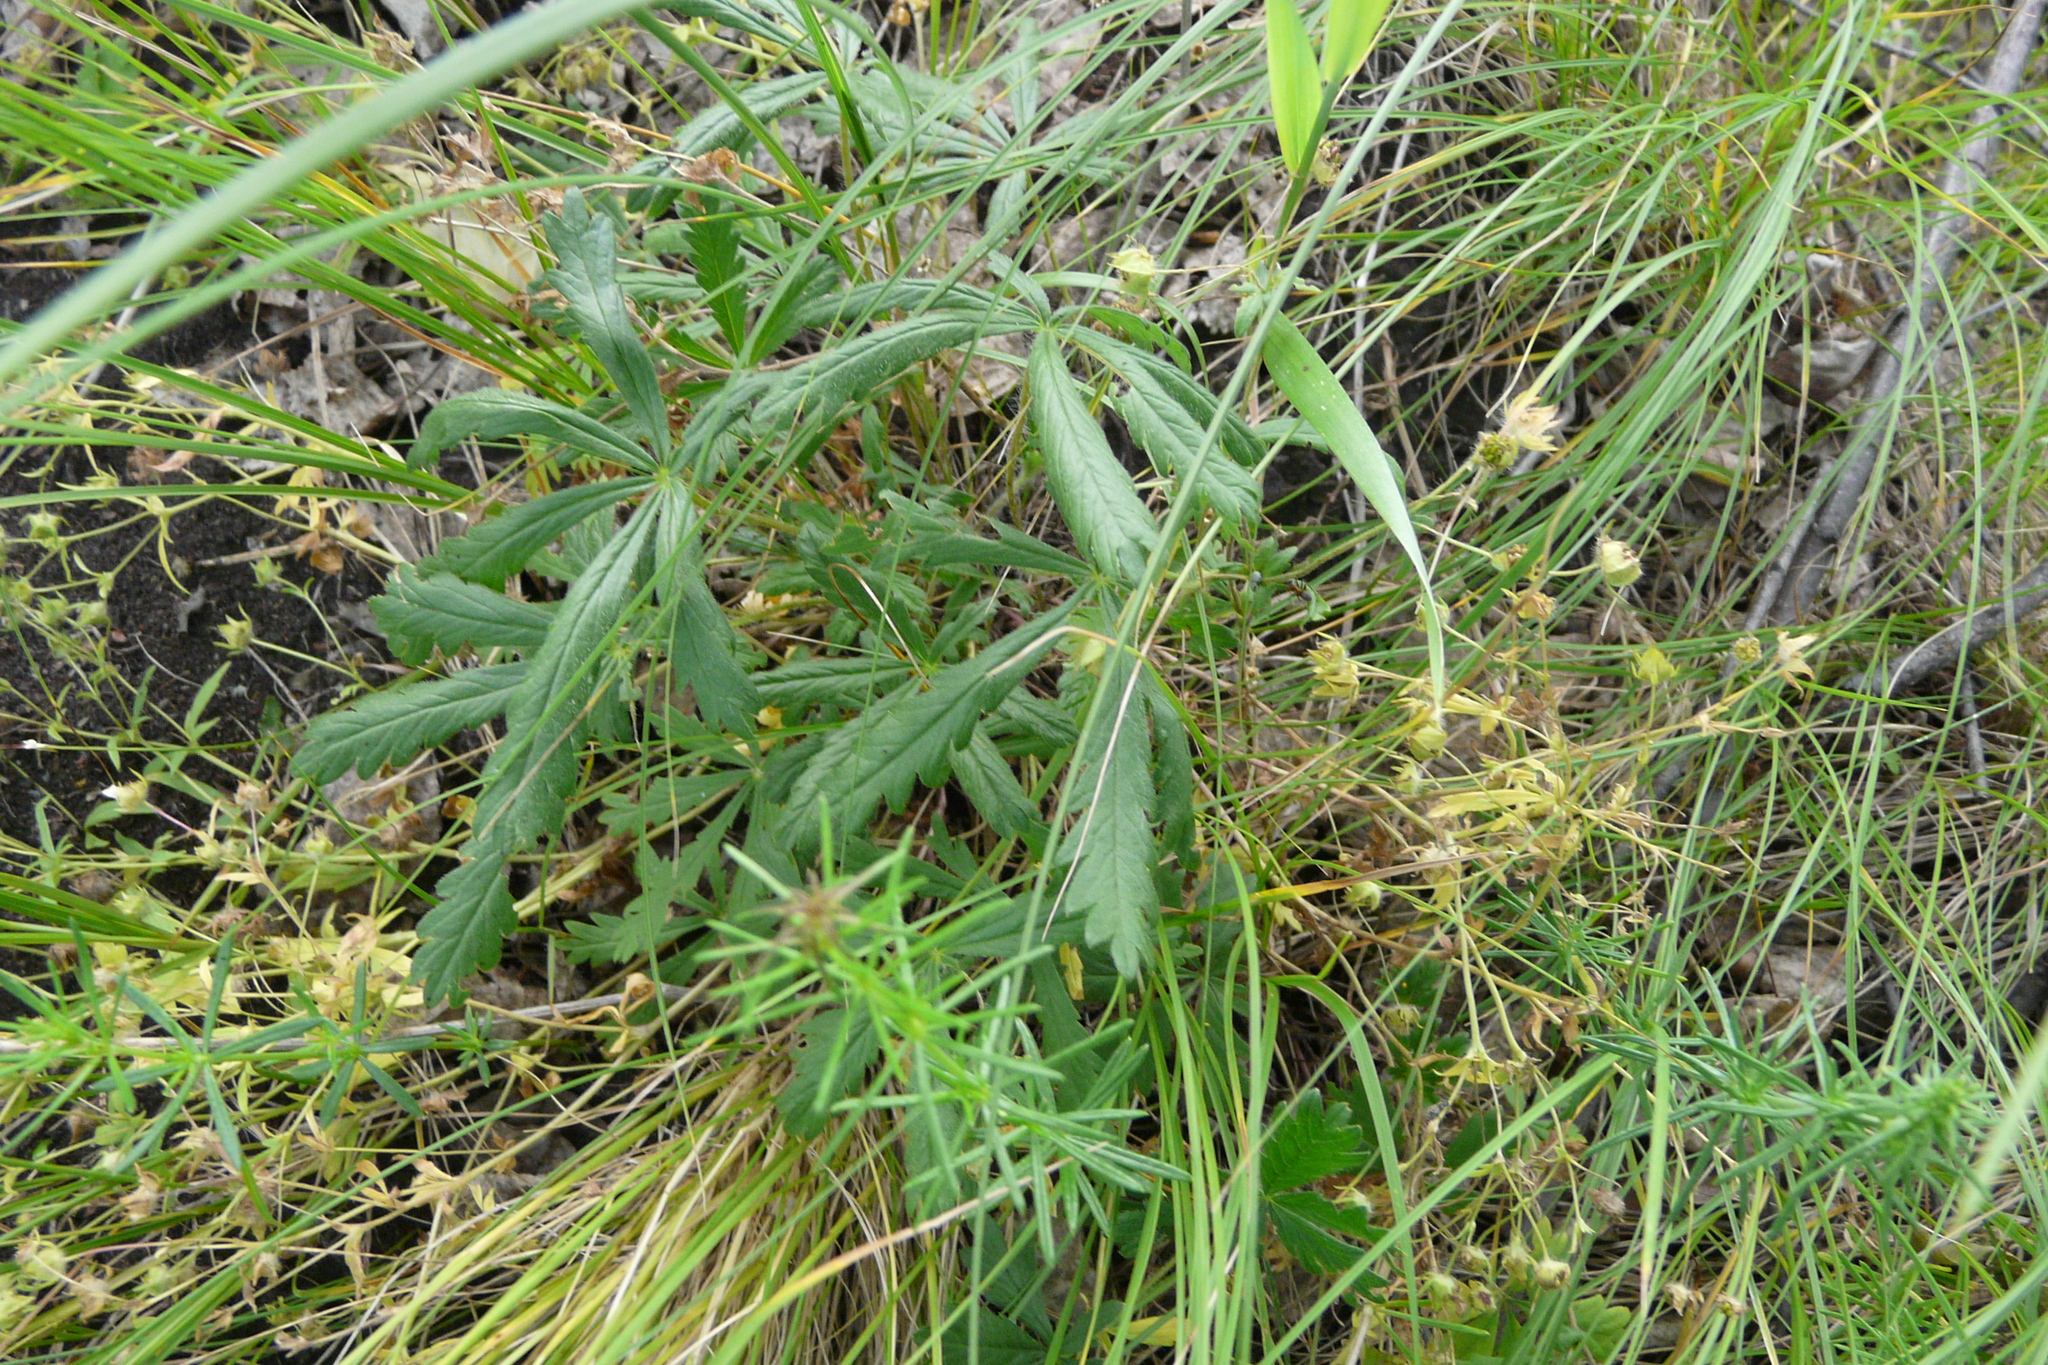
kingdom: Plantae
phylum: Tracheophyta
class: Magnoliopsida
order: Rosales
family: Rosaceae
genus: Potentilla
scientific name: Potentilla humifusa
